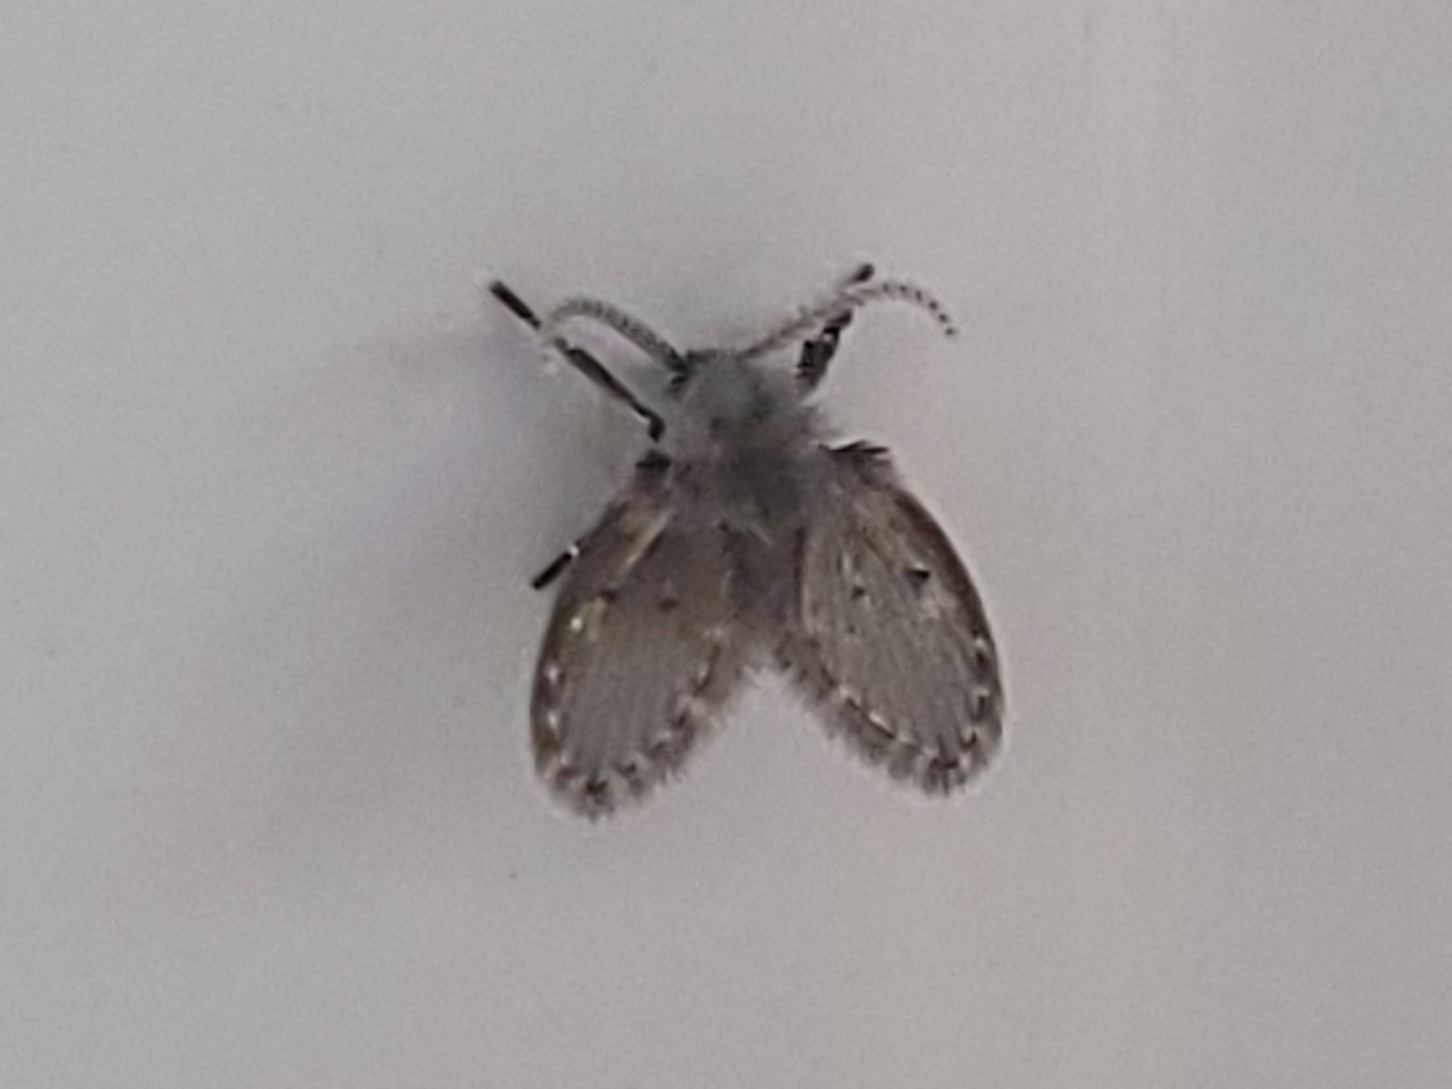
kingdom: Animalia
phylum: Arthropoda
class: Insecta
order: Diptera
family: Psychodidae
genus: Clogmia
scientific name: Clogmia albipunctatus
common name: White-spotted moth fly
